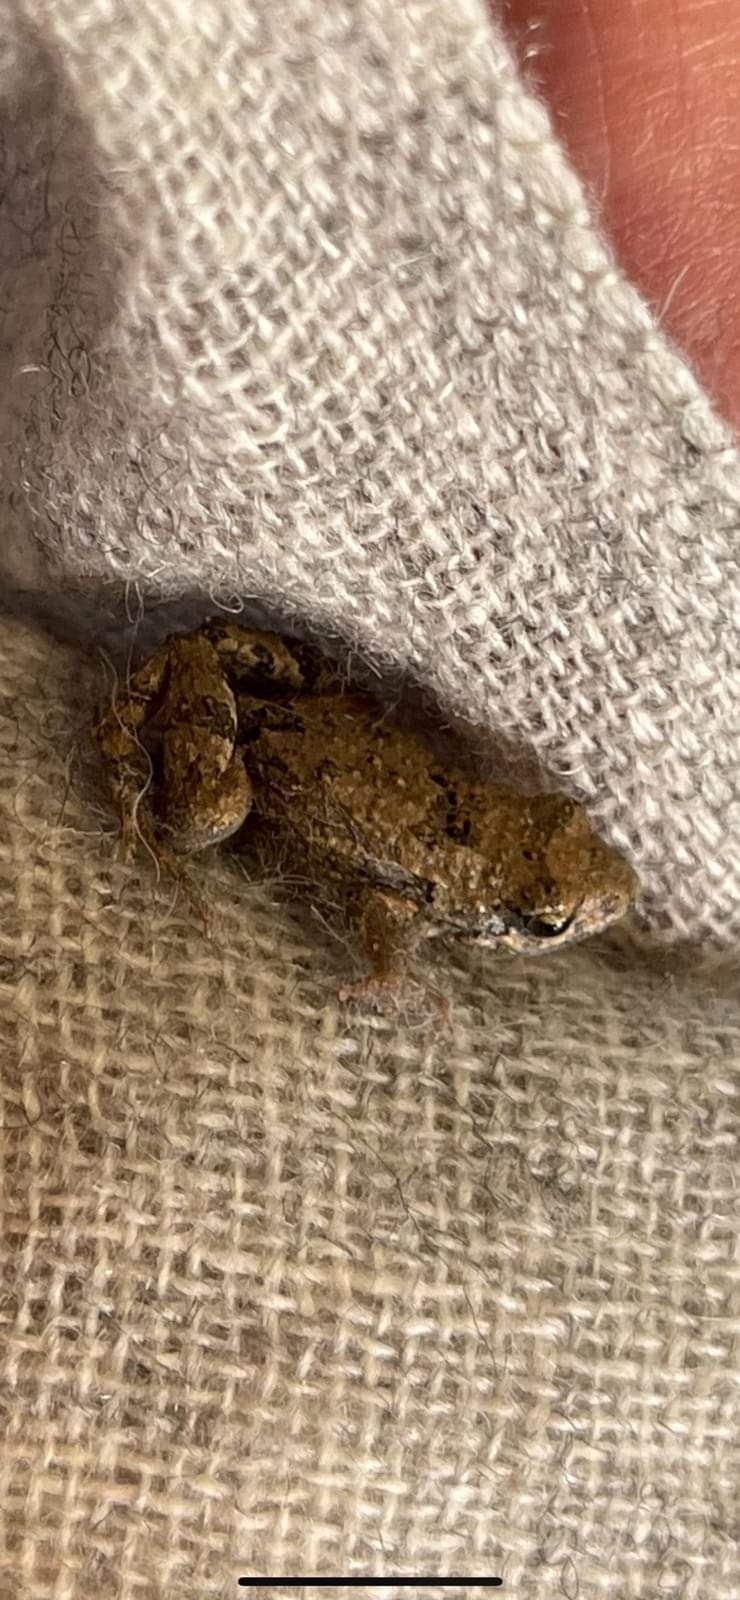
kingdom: Animalia
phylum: Chordata
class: Amphibia
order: Anura
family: Myobatrachidae
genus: Crinia
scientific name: Crinia parinsignifera
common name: Beeping froglet
